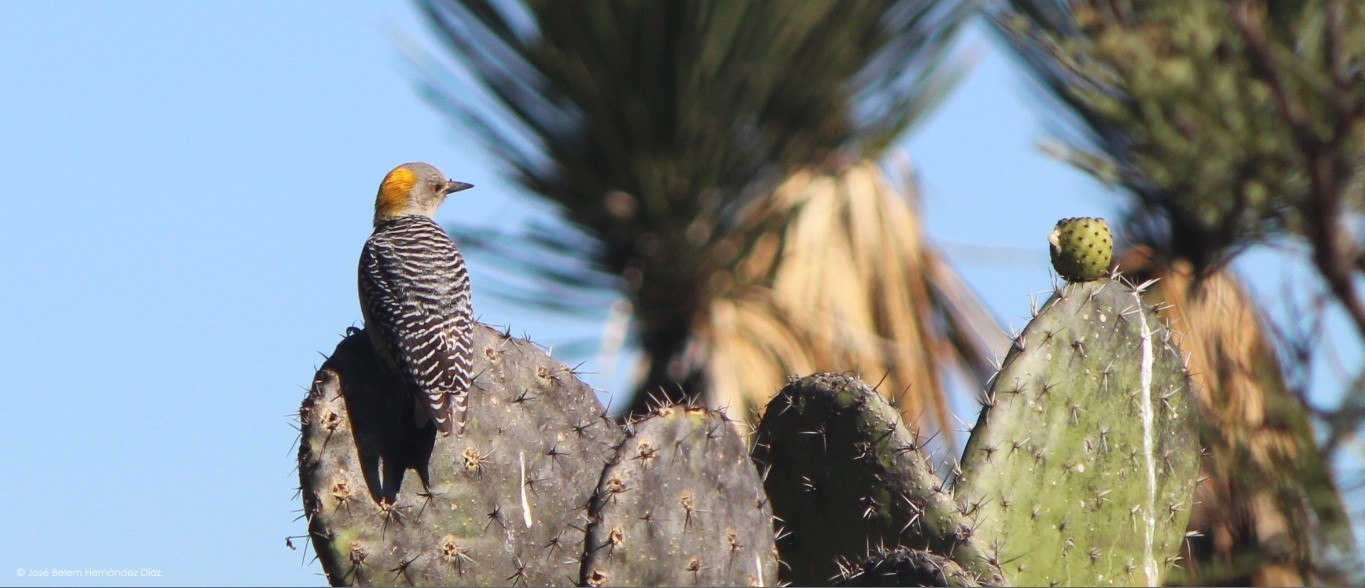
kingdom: Animalia
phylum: Chordata
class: Aves
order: Piciformes
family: Picidae
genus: Melanerpes
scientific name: Melanerpes aurifrons
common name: Golden-fronted woodpecker
